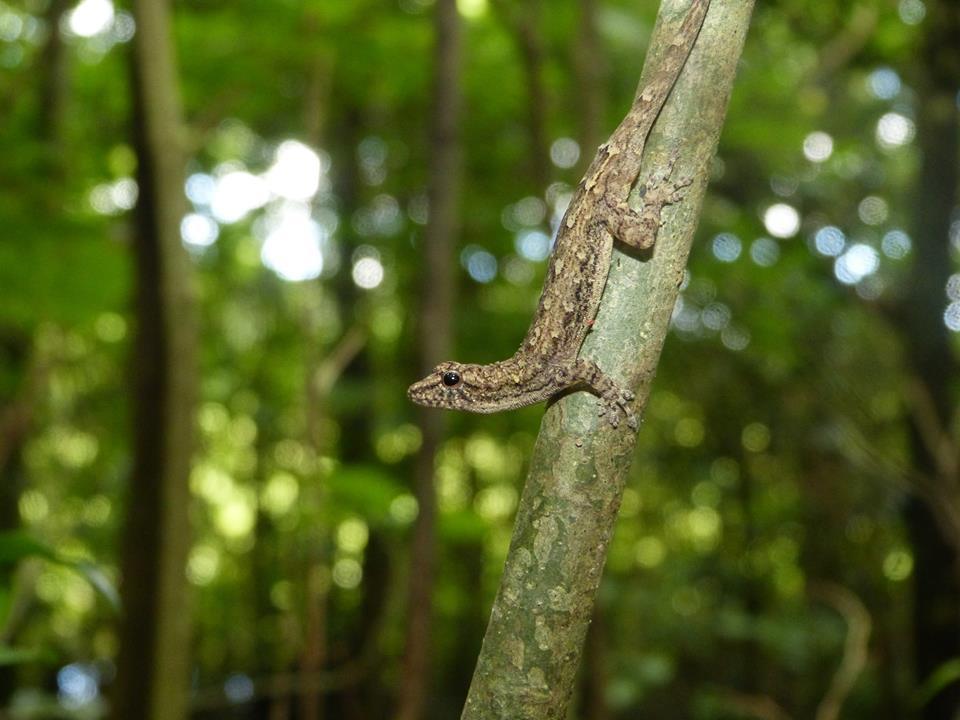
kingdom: Animalia
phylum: Chordata
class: Squamata
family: Gekkonidae
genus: Lygodactylus
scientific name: Lygodactylus tolampyae
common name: Grandidier's dwarf gecko
